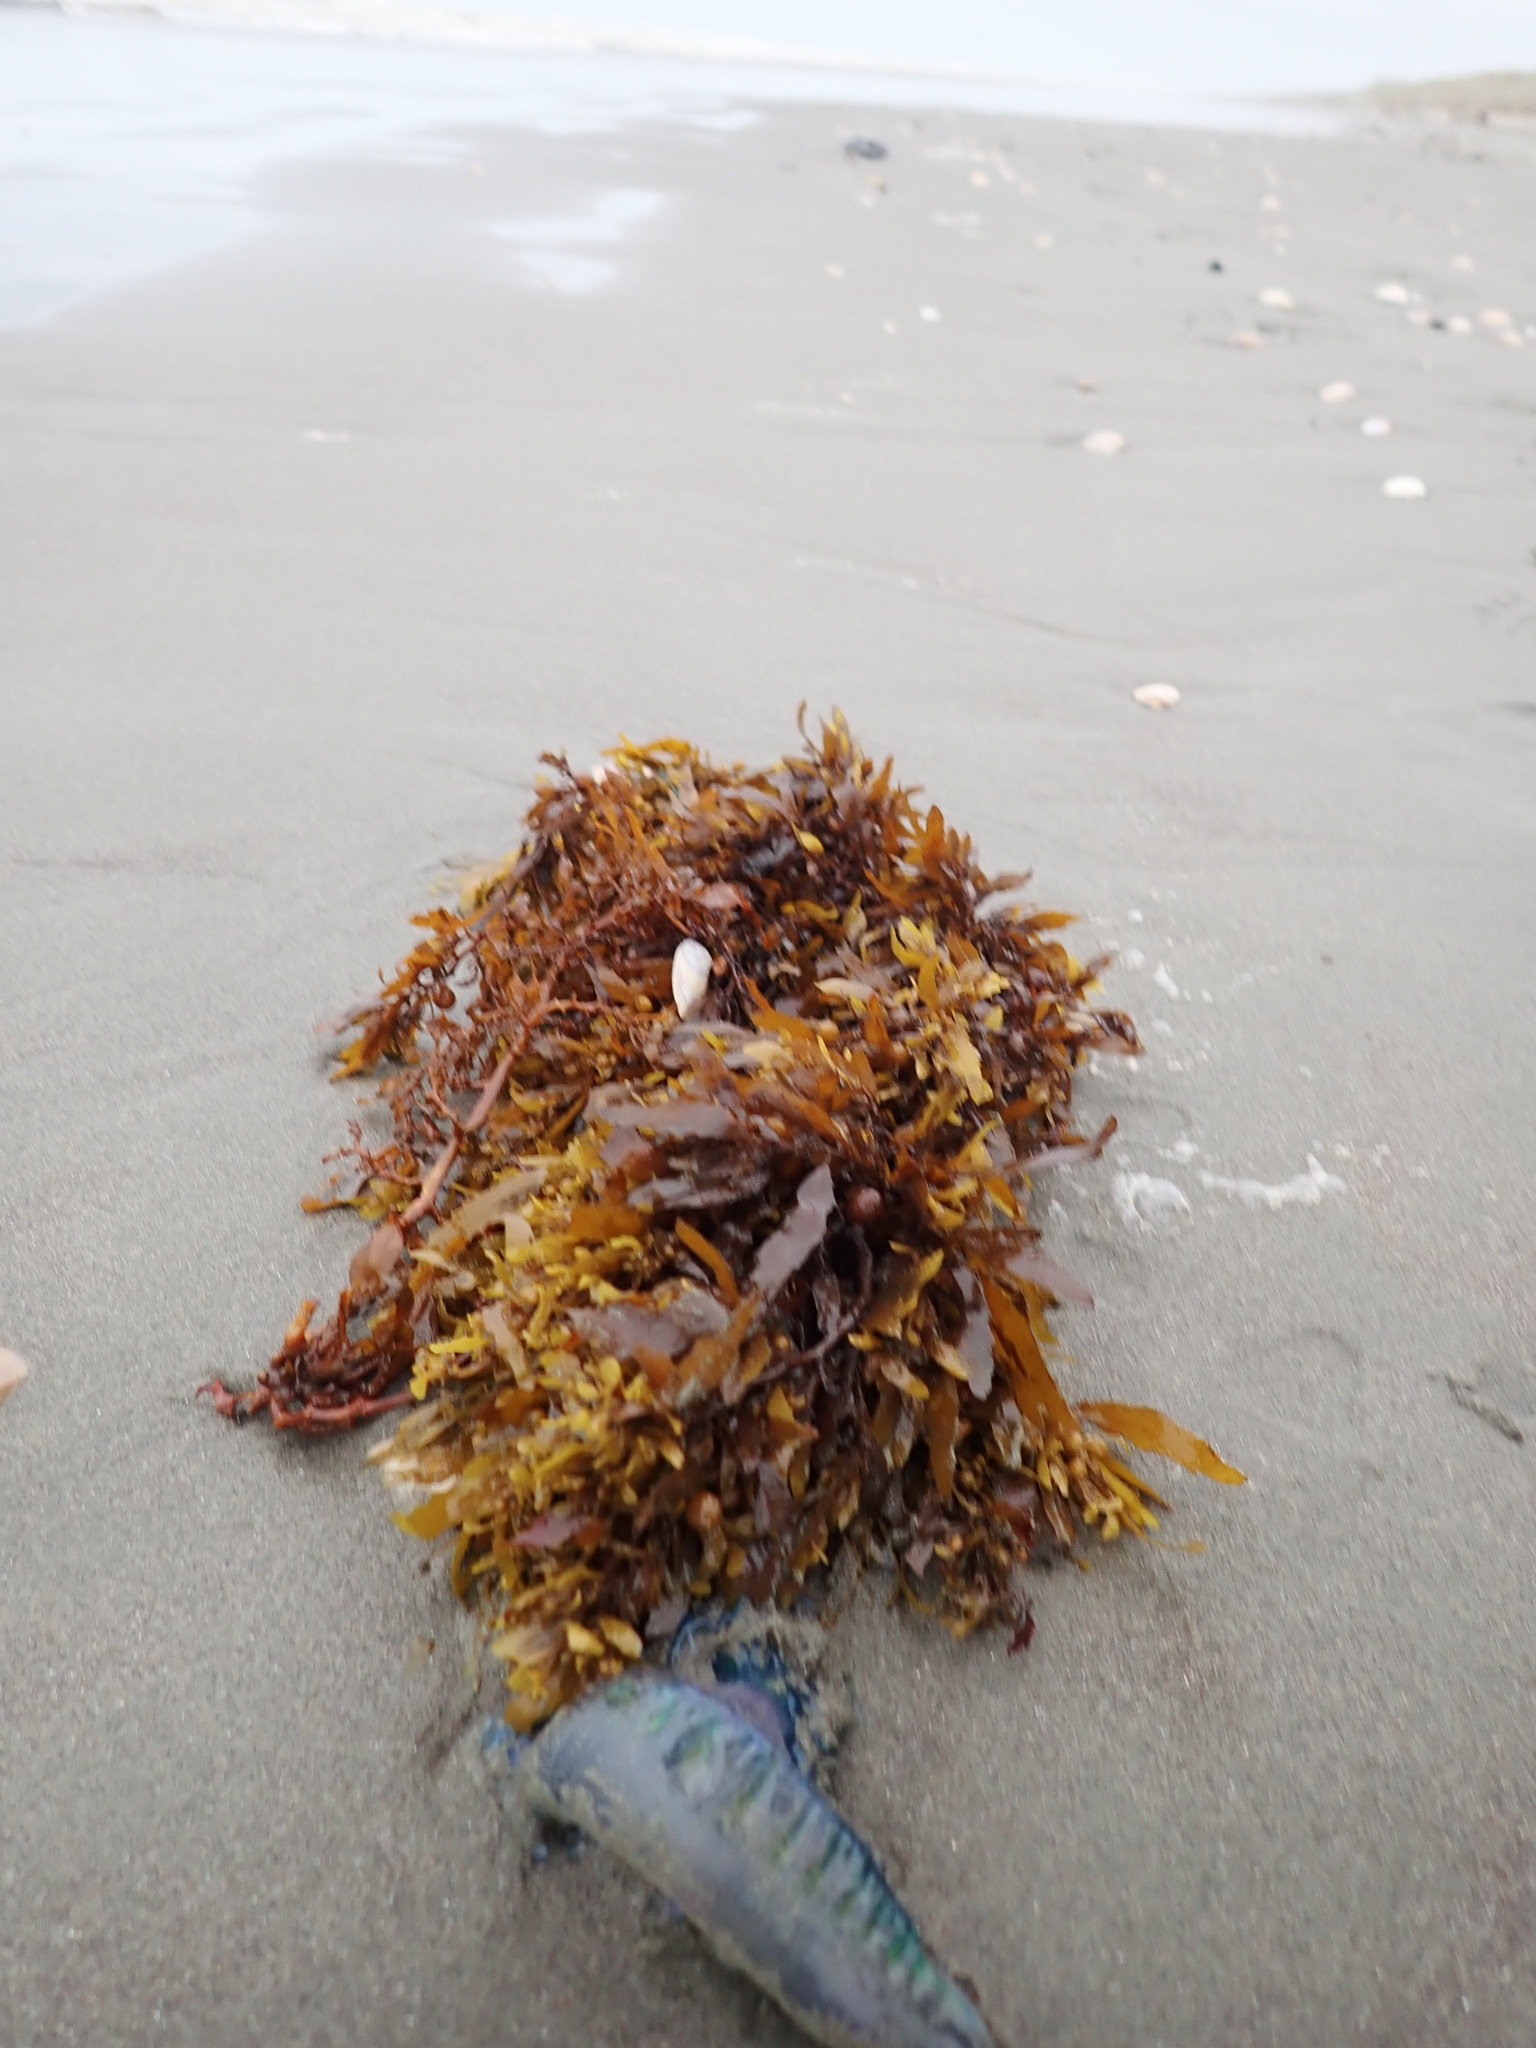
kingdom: Chromista
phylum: Ochrophyta
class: Phaeophyceae
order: Fucales
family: Sargassaceae
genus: Sargassum
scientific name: Sargassum sinclairii
